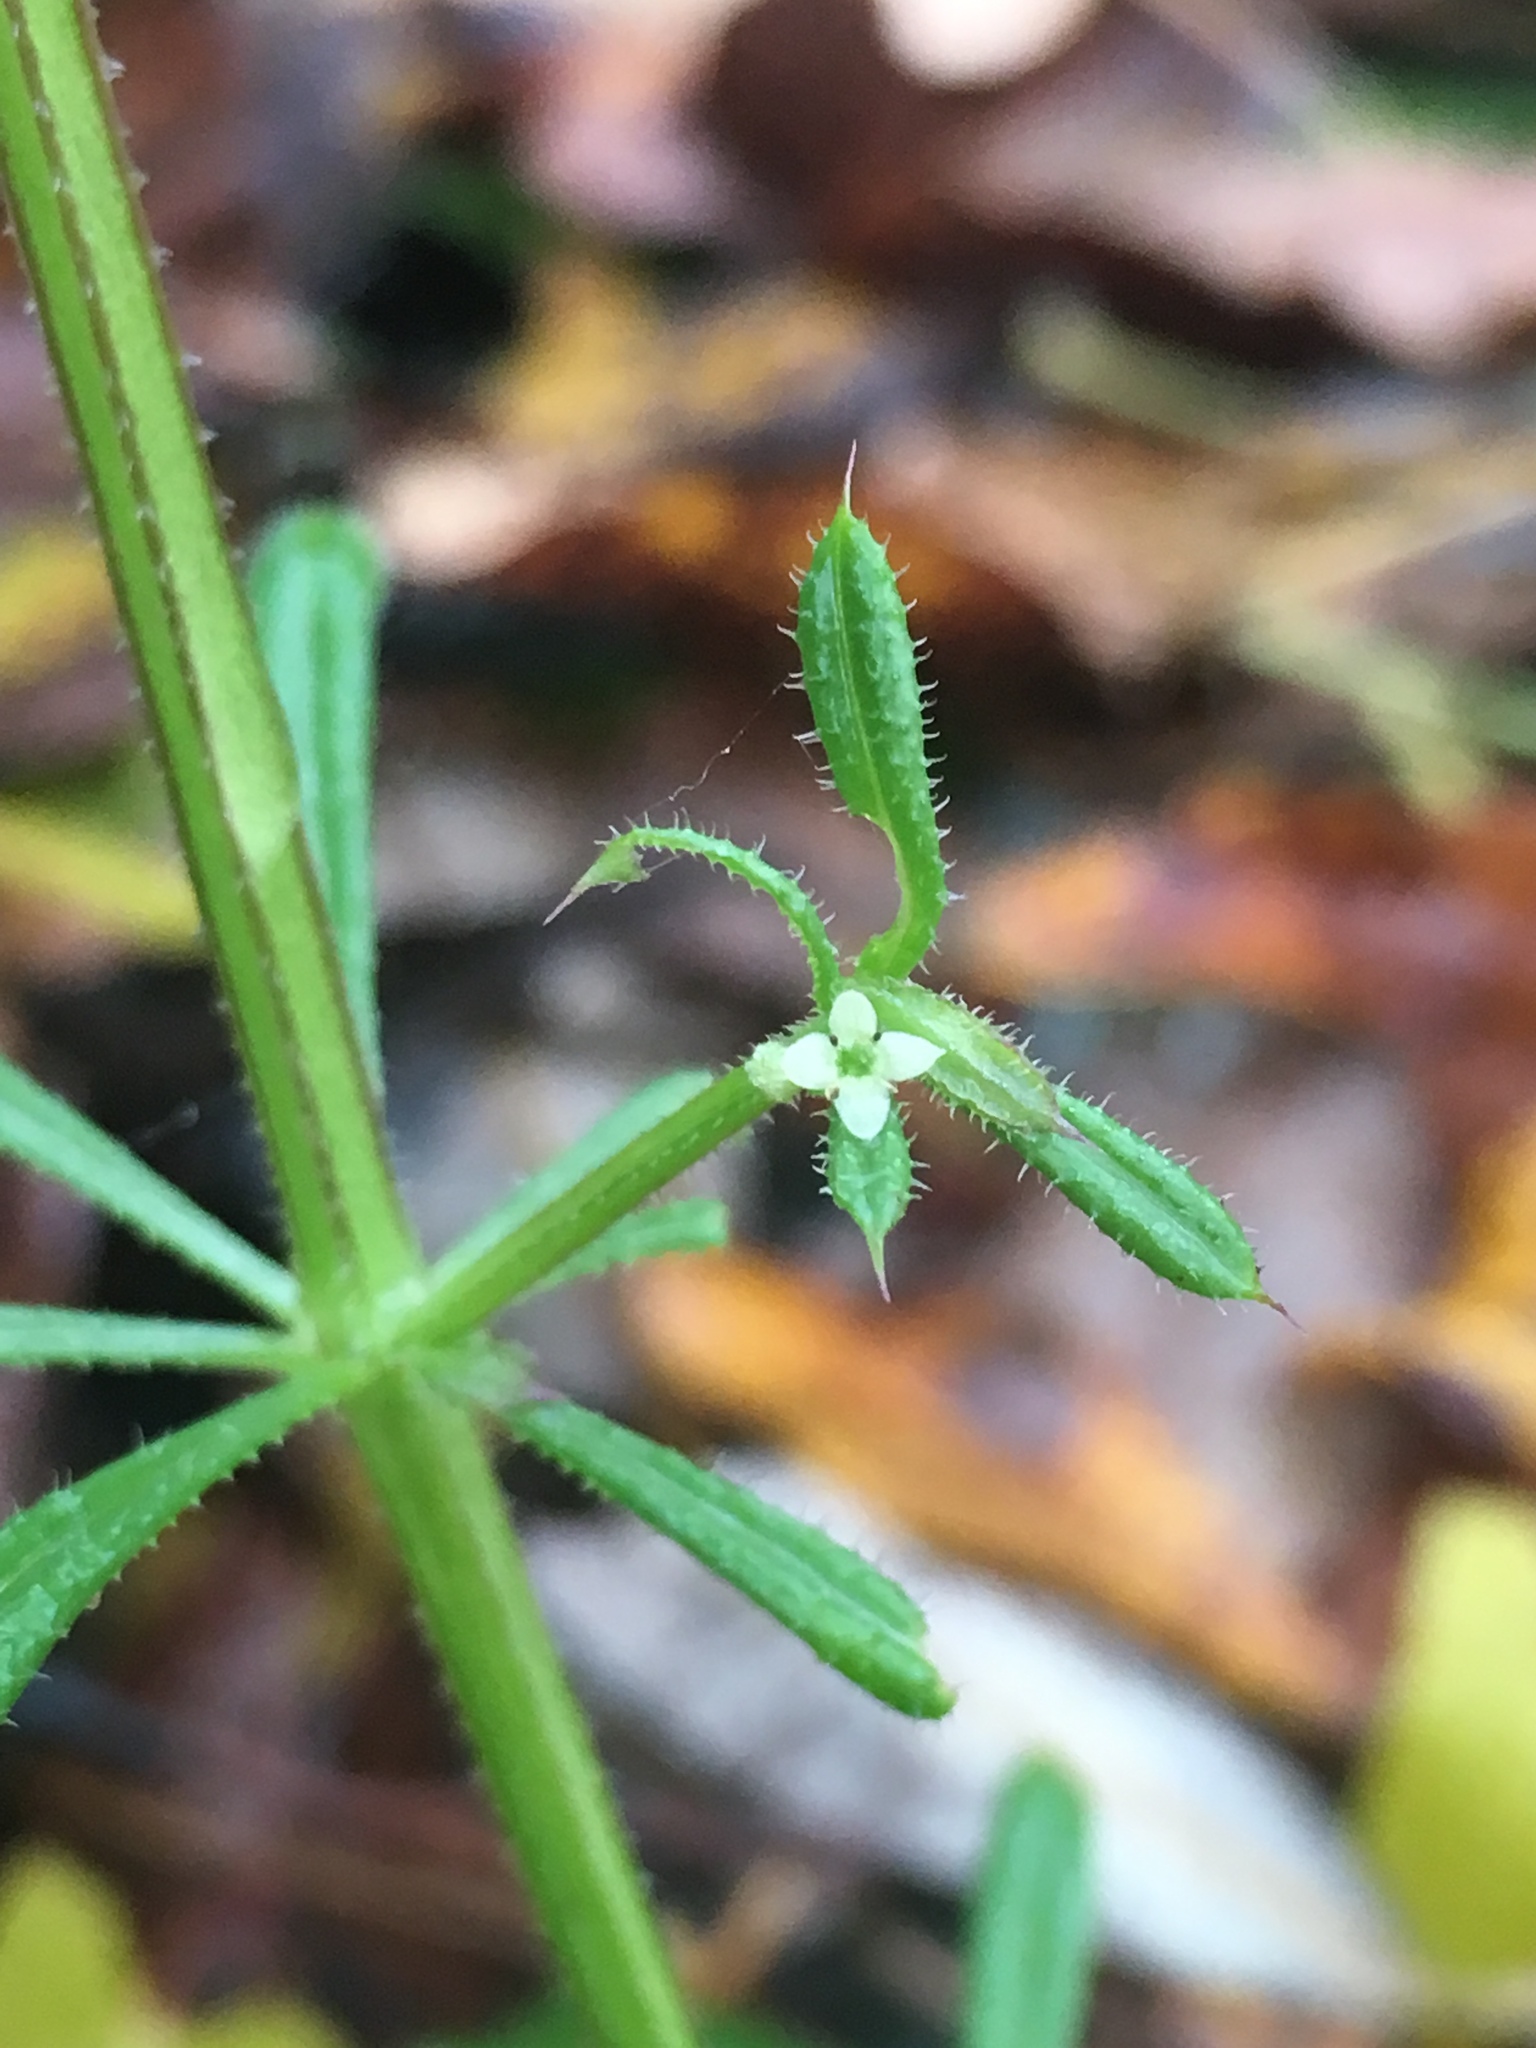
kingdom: Plantae
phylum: Tracheophyta
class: Magnoliopsida
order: Gentianales
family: Rubiaceae
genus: Galium
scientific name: Galium aparine
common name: Cleavers
